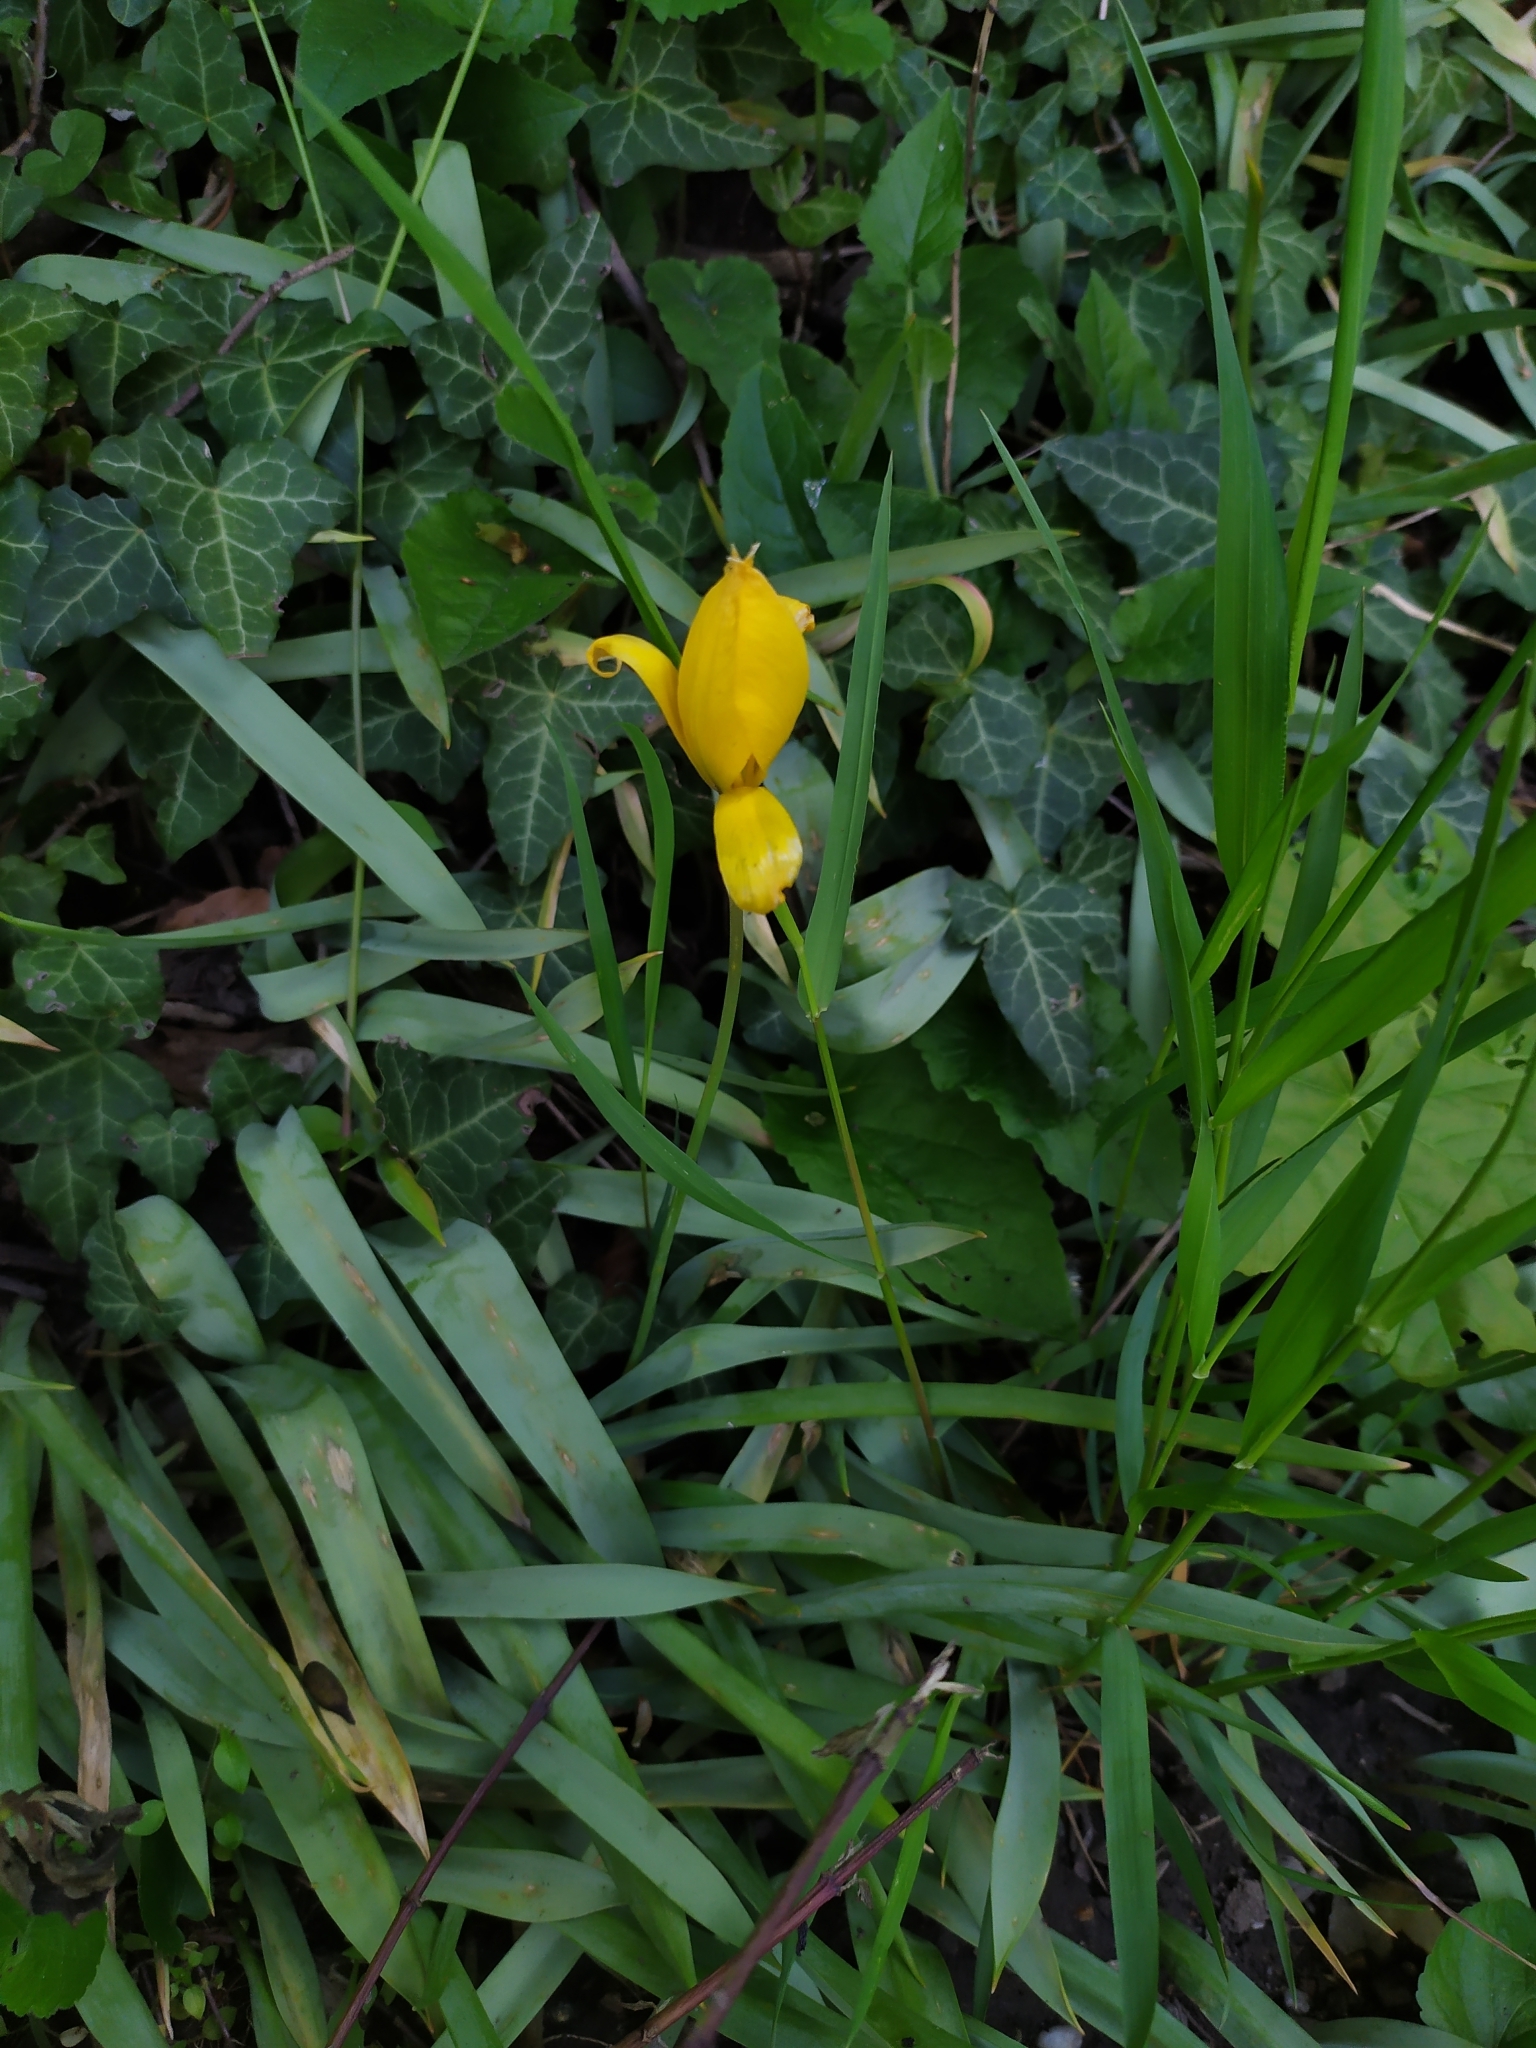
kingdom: Plantae
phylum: Tracheophyta
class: Liliopsida
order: Liliales
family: Liliaceae
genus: Tulipa
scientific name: Tulipa sylvestris
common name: Wild tulip
